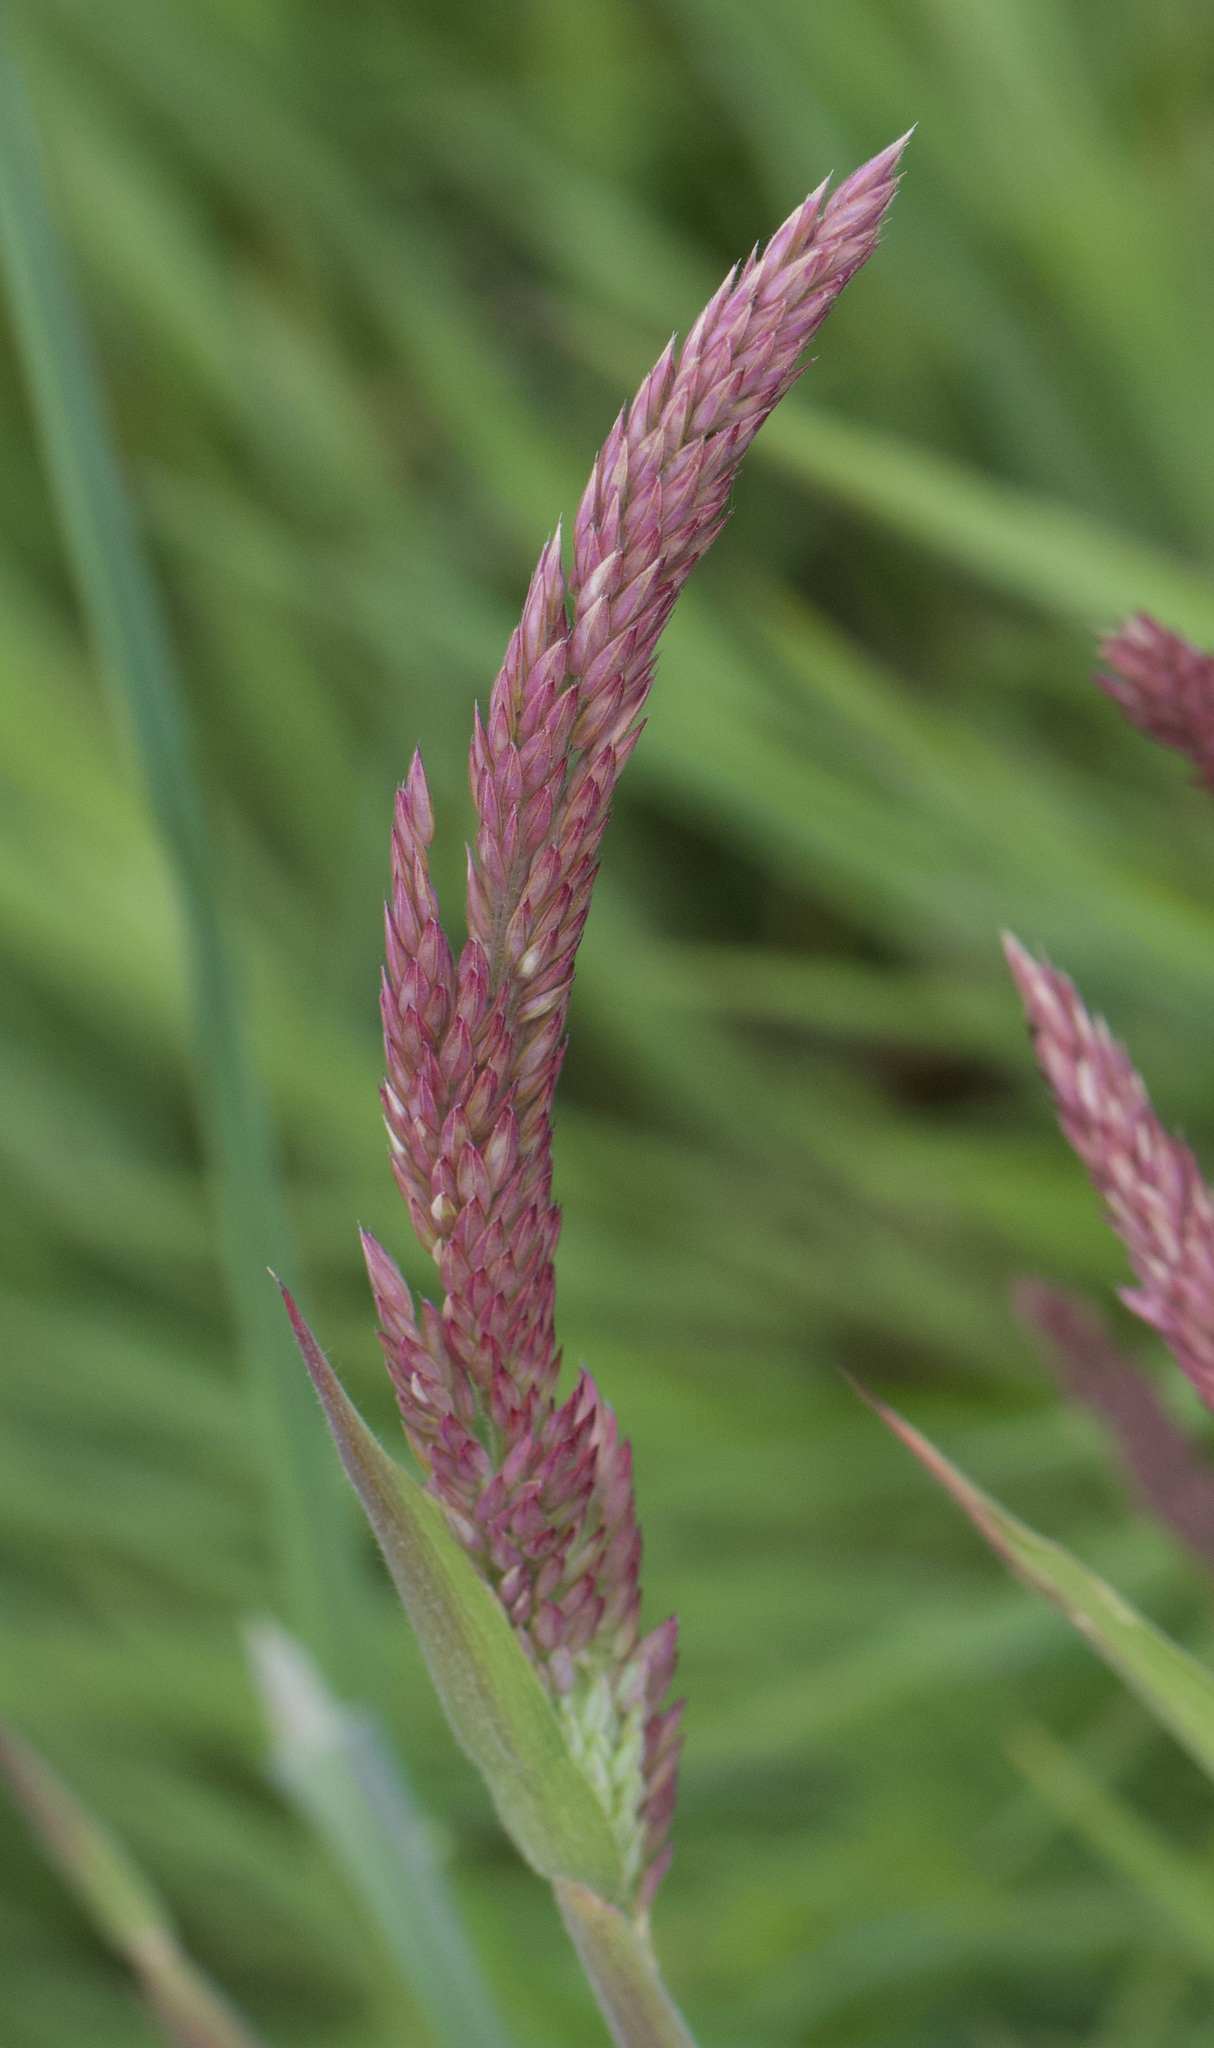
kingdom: Plantae
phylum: Tracheophyta
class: Liliopsida
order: Poales
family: Poaceae
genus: Holcus
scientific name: Holcus lanatus
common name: Yorkshire-fog
